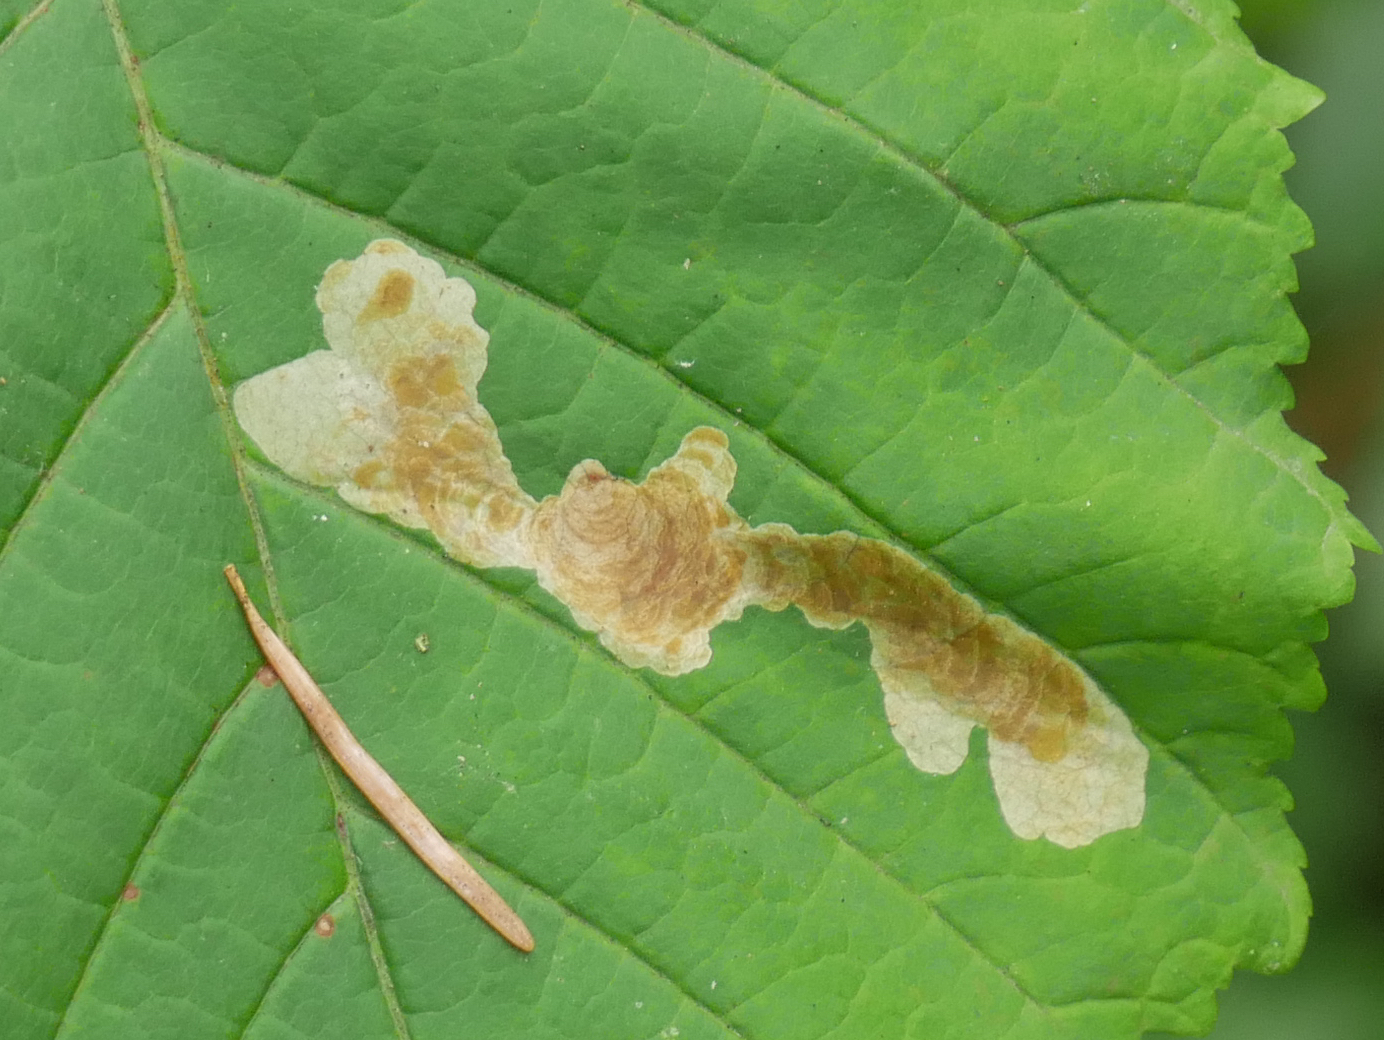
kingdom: Animalia
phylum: Arthropoda
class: Insecta
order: Lepidoptera
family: Gracillariidae
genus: Cameraria
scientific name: Cameraria ohridella
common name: Horse-chestnut leaf-miner
